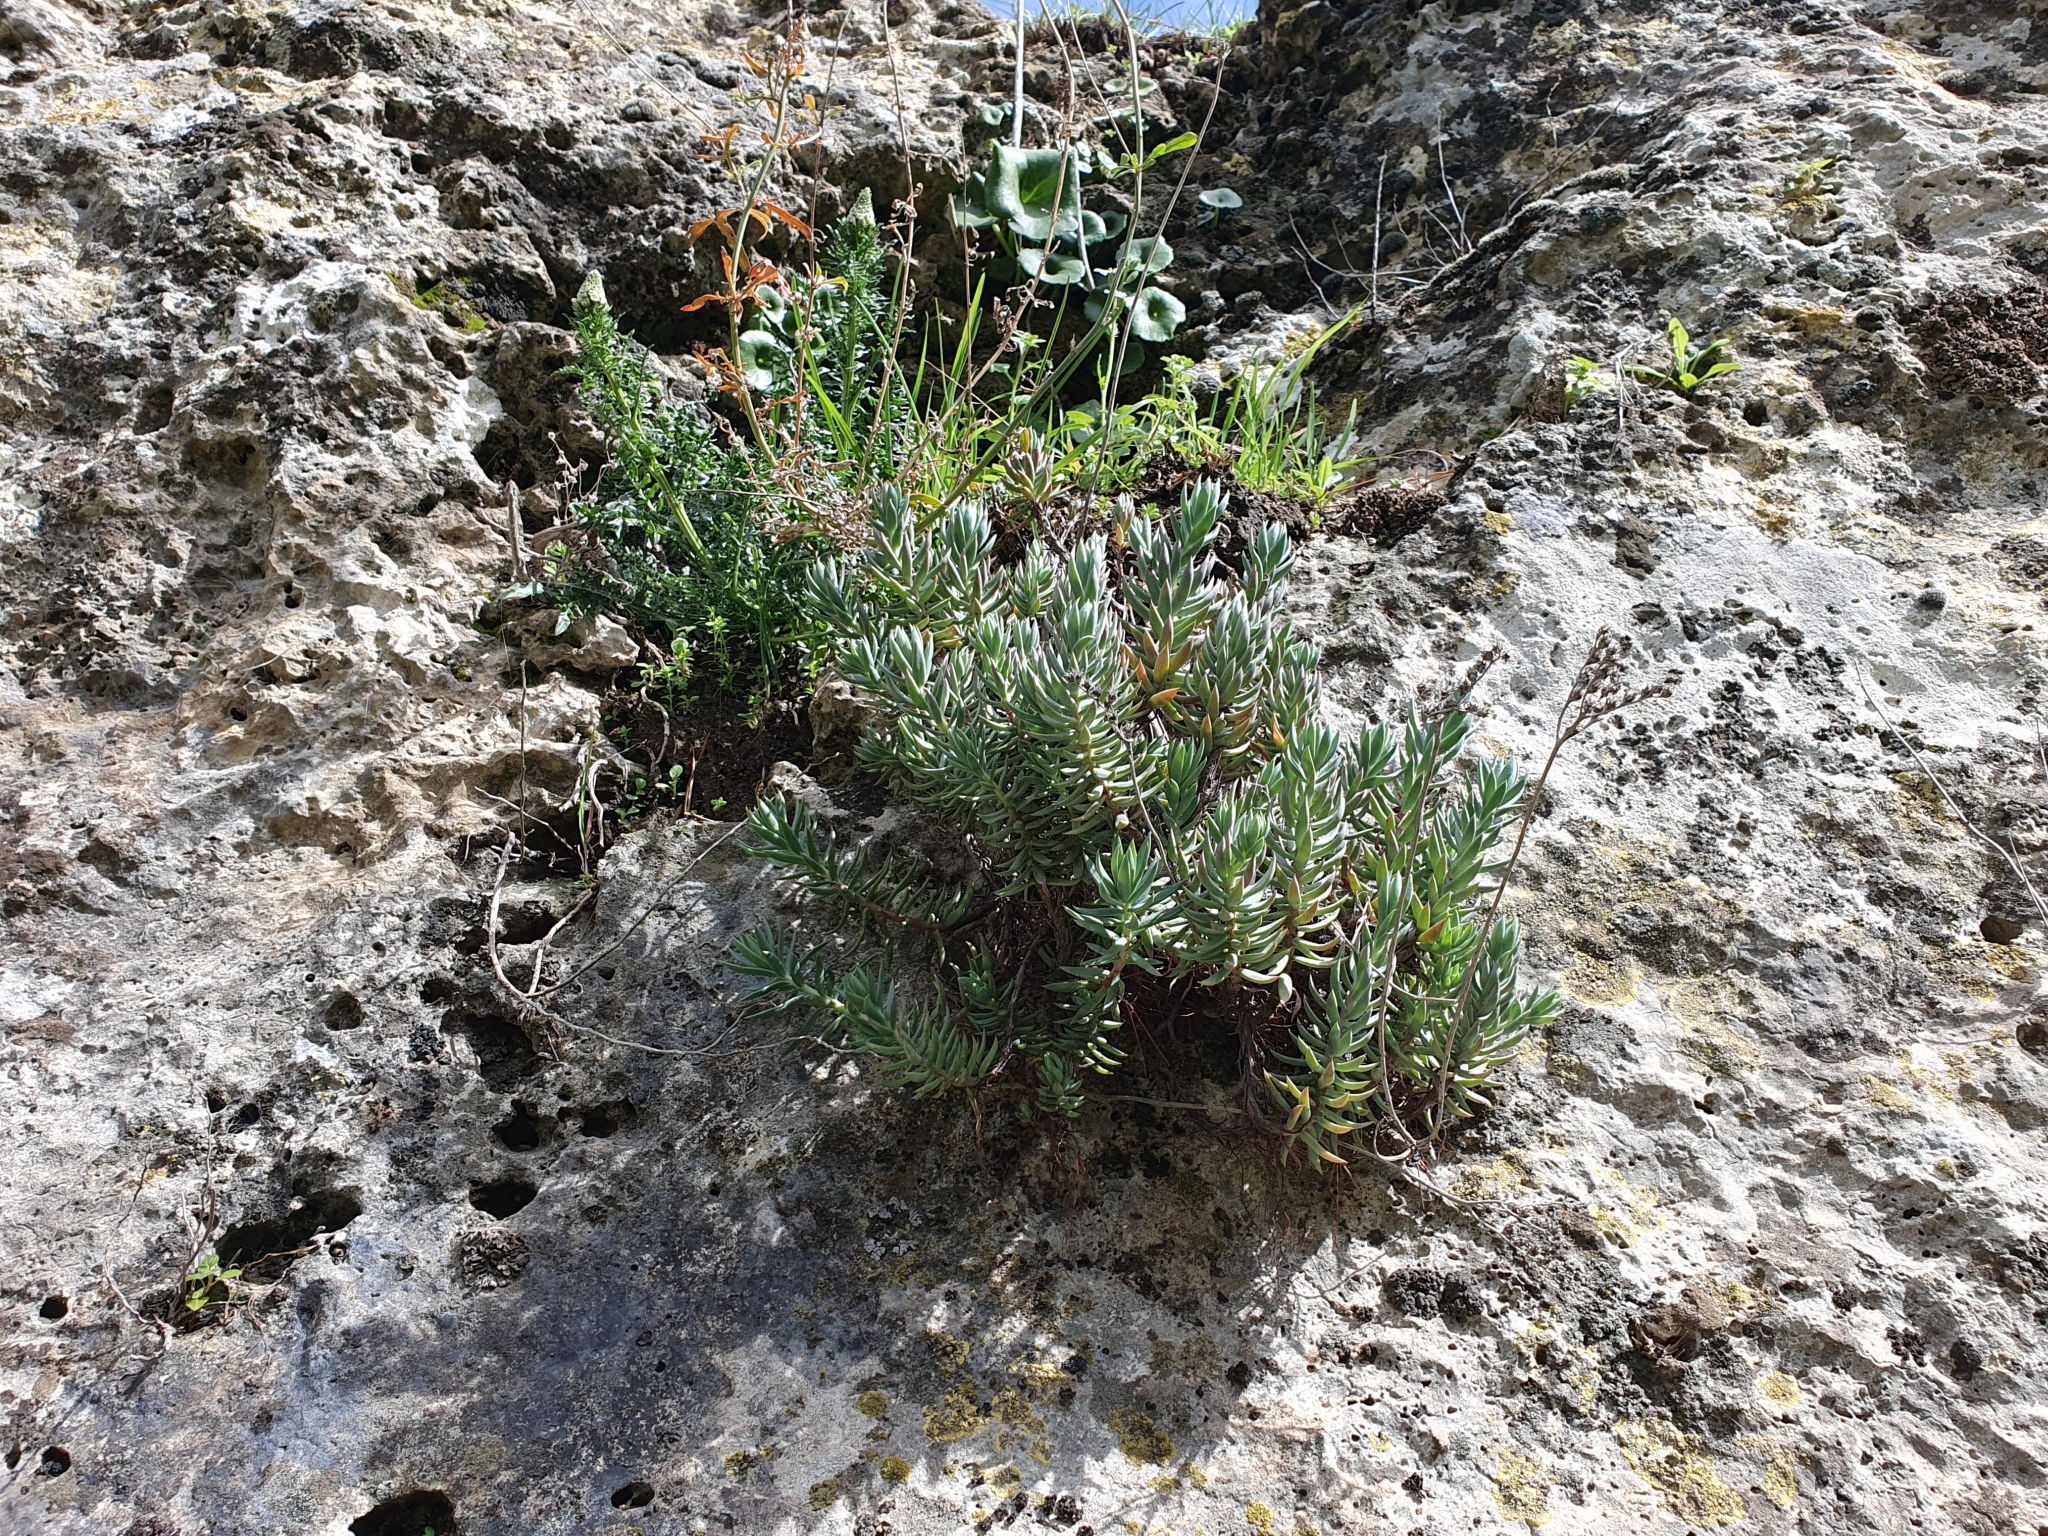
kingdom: Plantae
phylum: Tracheophyta
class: Magnoliopsida
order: Saxifragales
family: Crassulaceae
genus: Petrosedum
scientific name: Petrosedum sediforme
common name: Pale stonecrop
